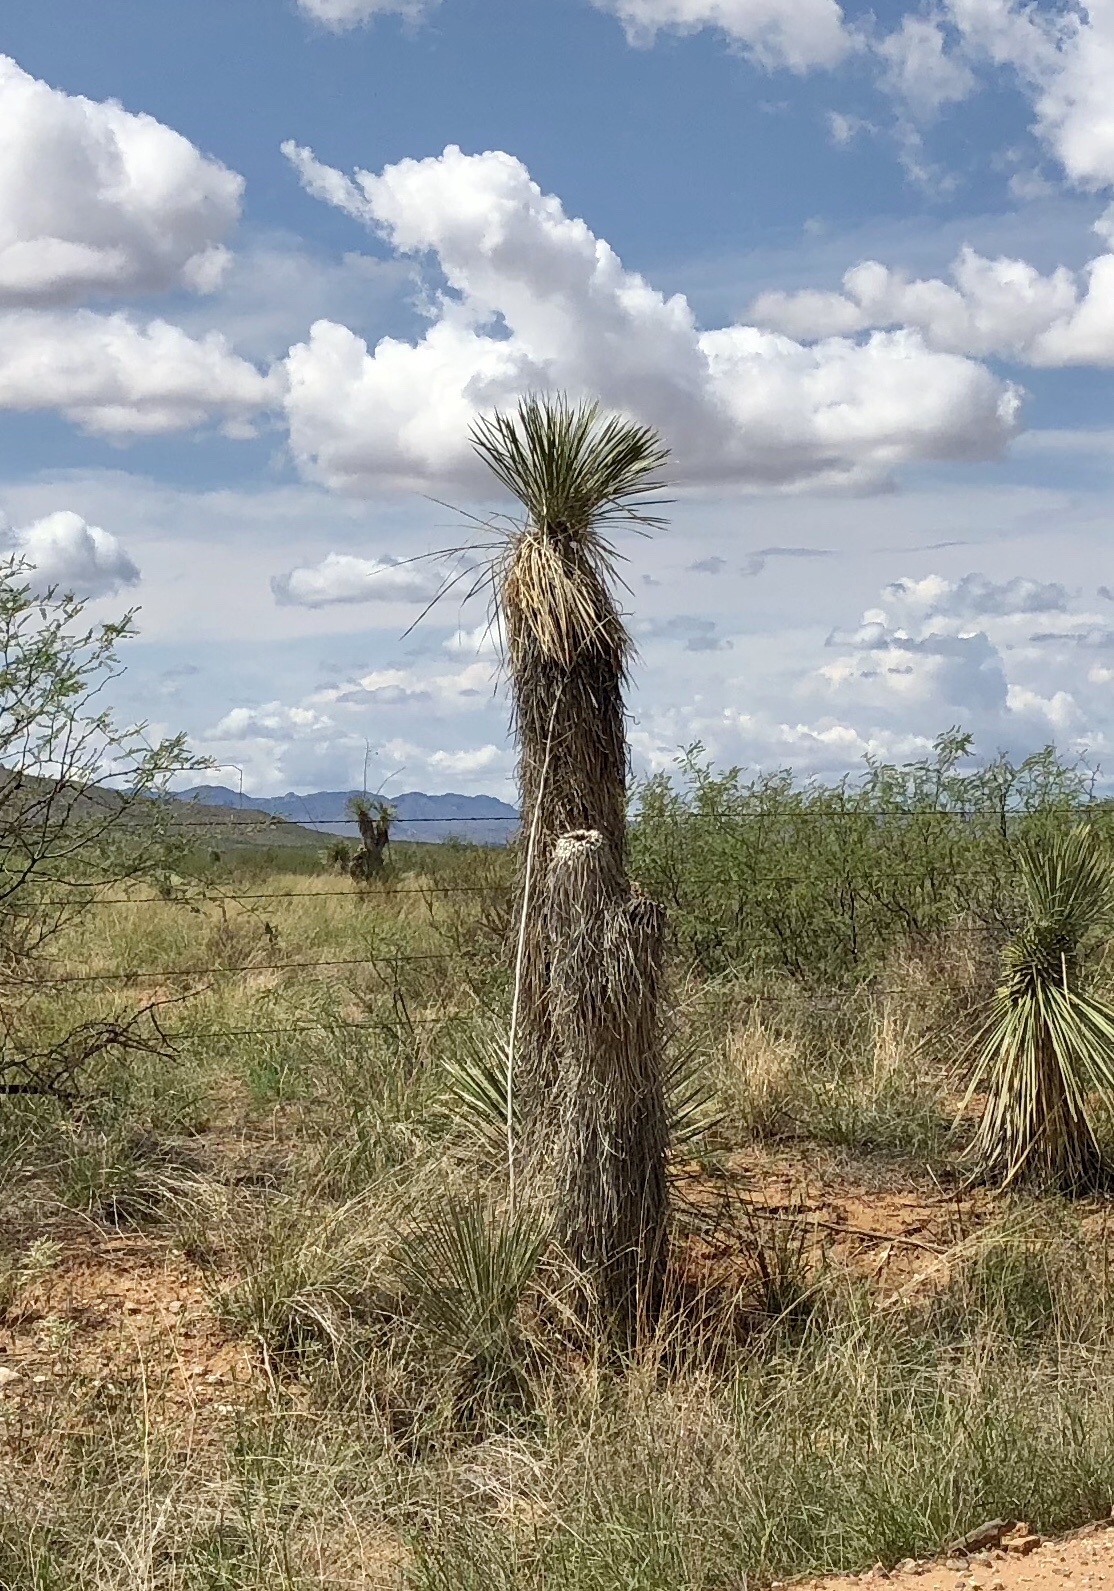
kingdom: Plantae
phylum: Tracheophyta
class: Liliopsida
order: Asparagales
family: Asparagaceae
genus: Yucca
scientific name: Yucca elata
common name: Palmella
